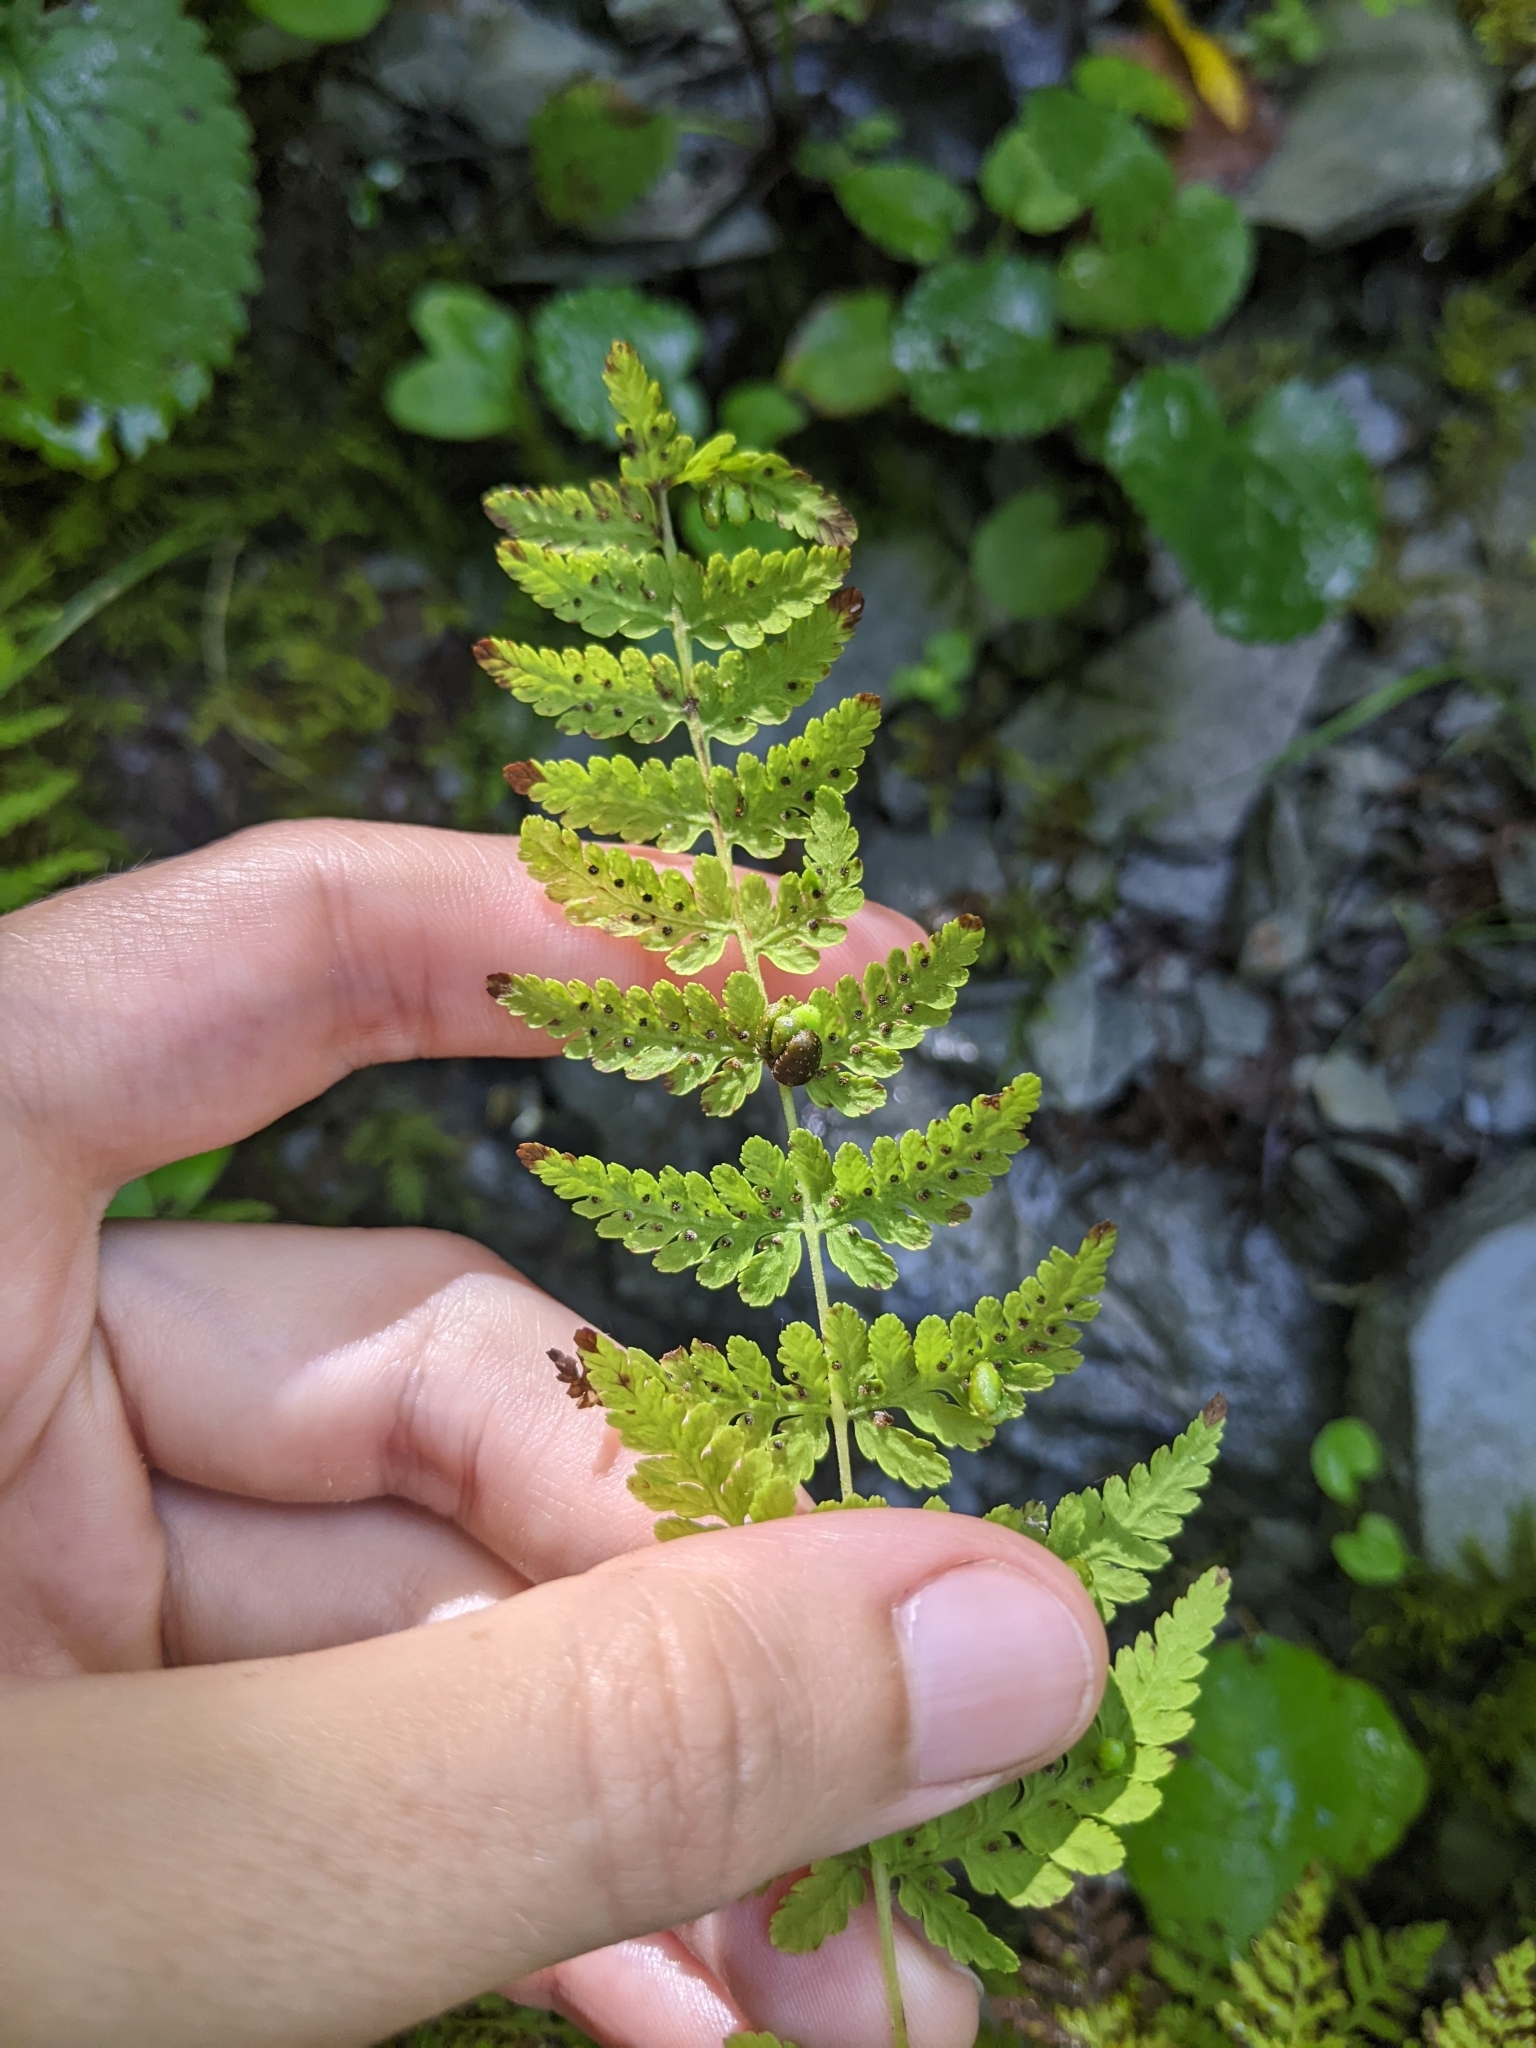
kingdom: Plantae
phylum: Tracheophyta
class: Polypodiopsida
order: Polypodiales
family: Cystopteridaceae
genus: Cystopteris
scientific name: Cystopteris bulbifera
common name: Bulblet bladder fern
